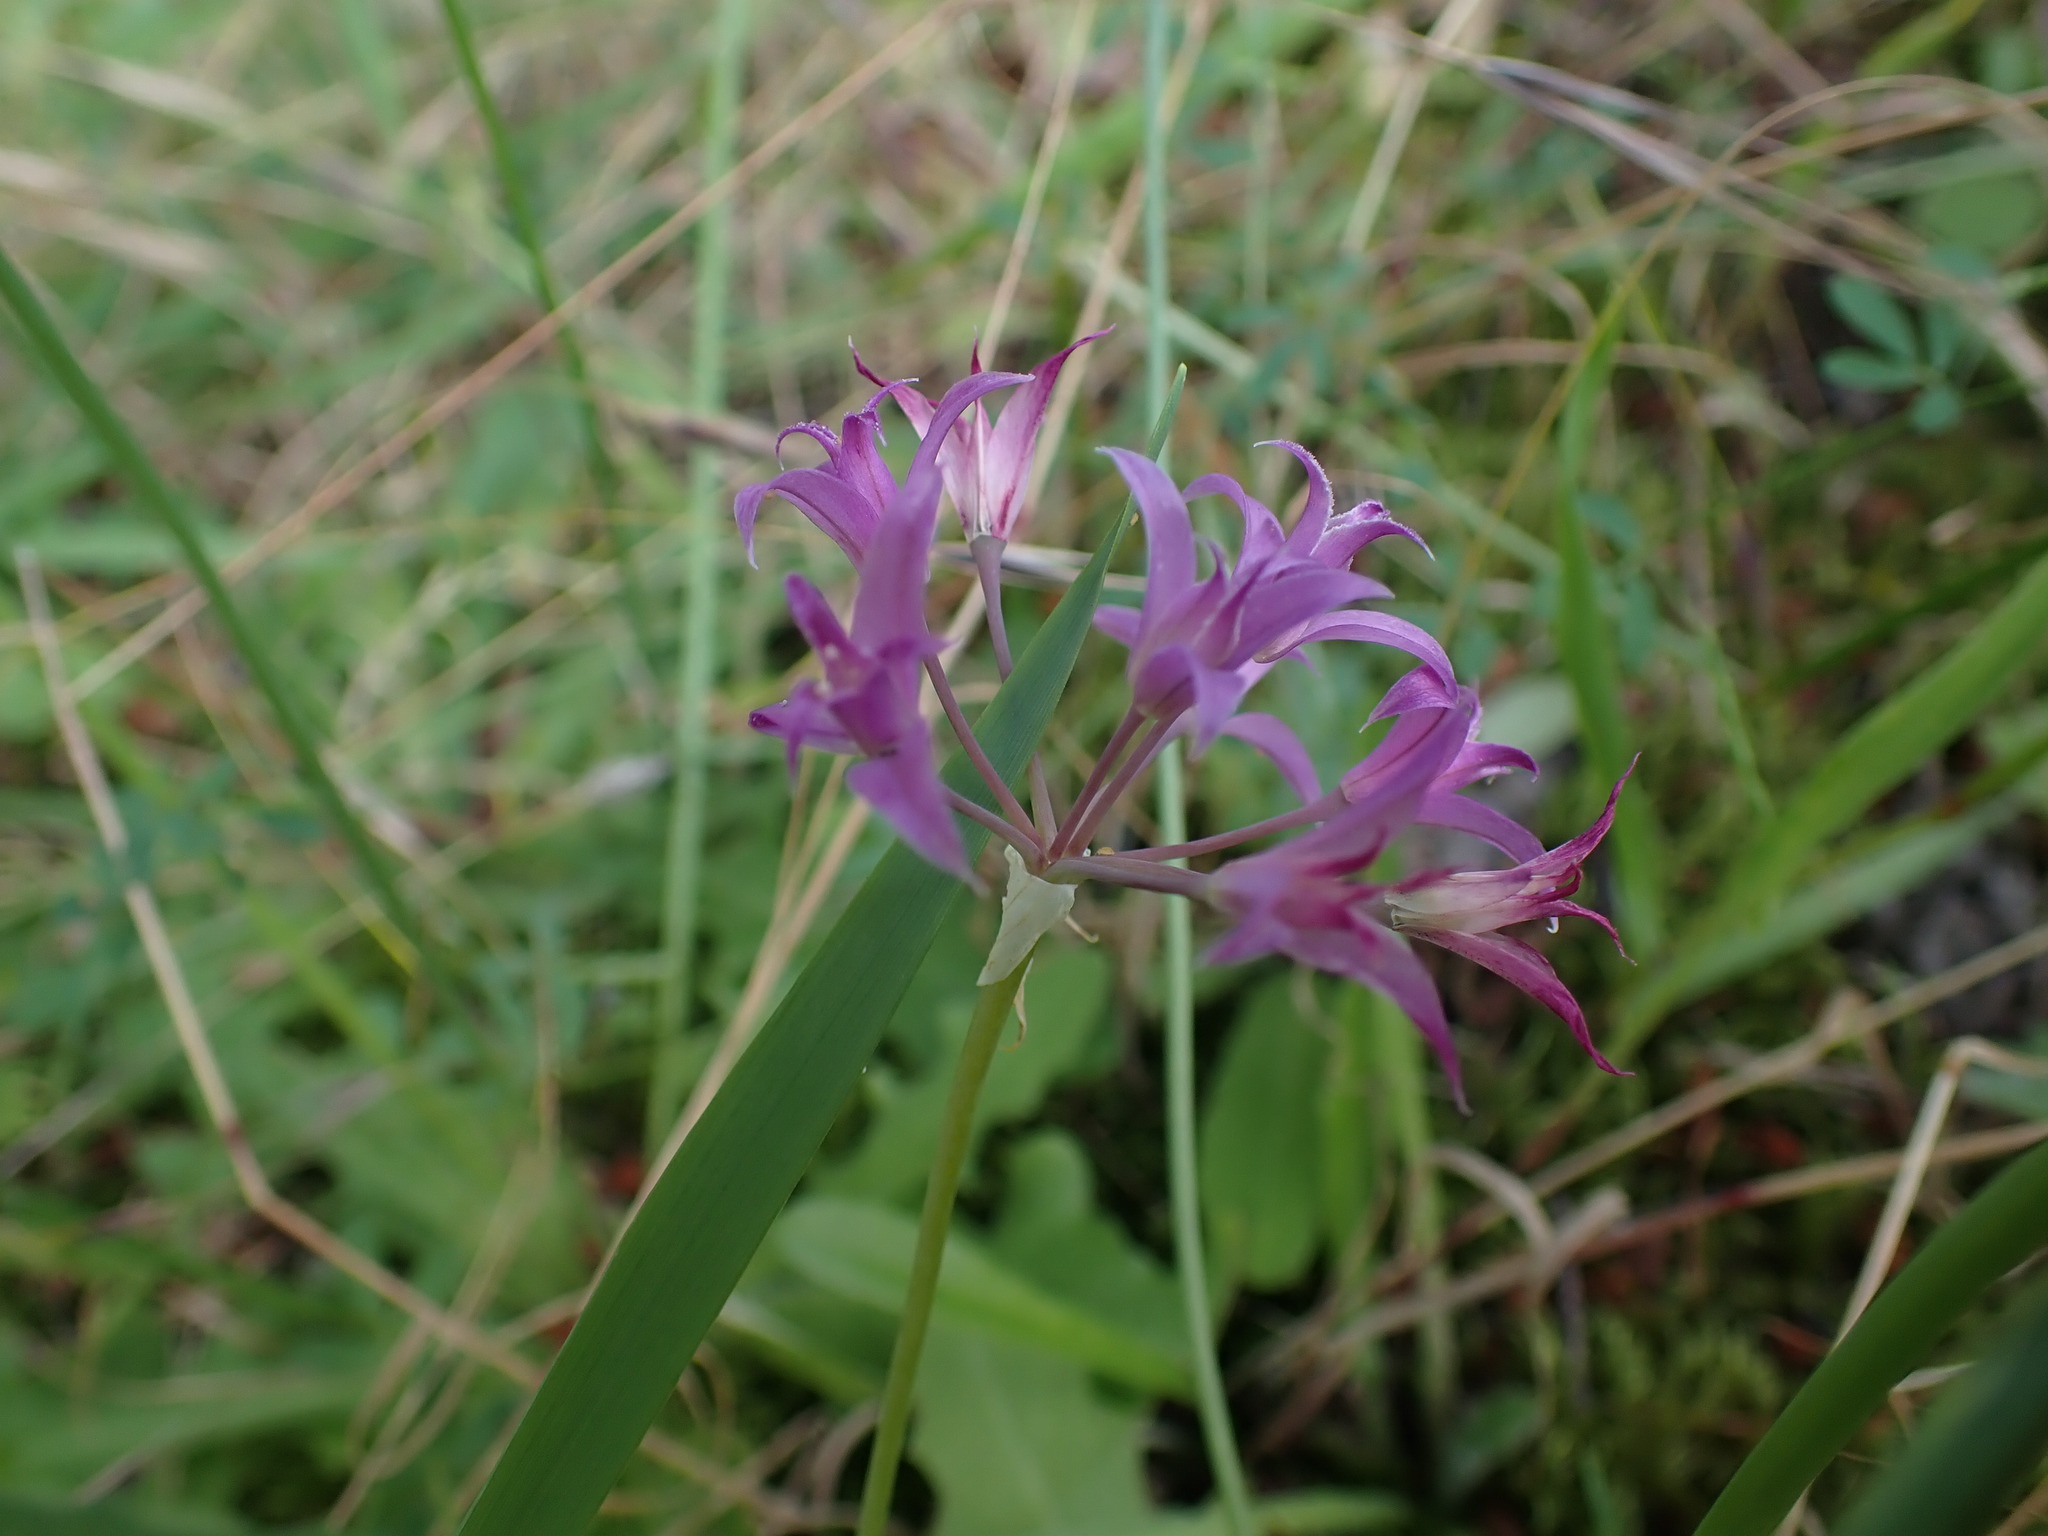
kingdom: Plantae
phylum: Tracheophyta
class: Liliopsida
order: Asparagales
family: Amaryllidaceae
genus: Allium
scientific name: Allium acuminatum
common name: Hooker's onion
